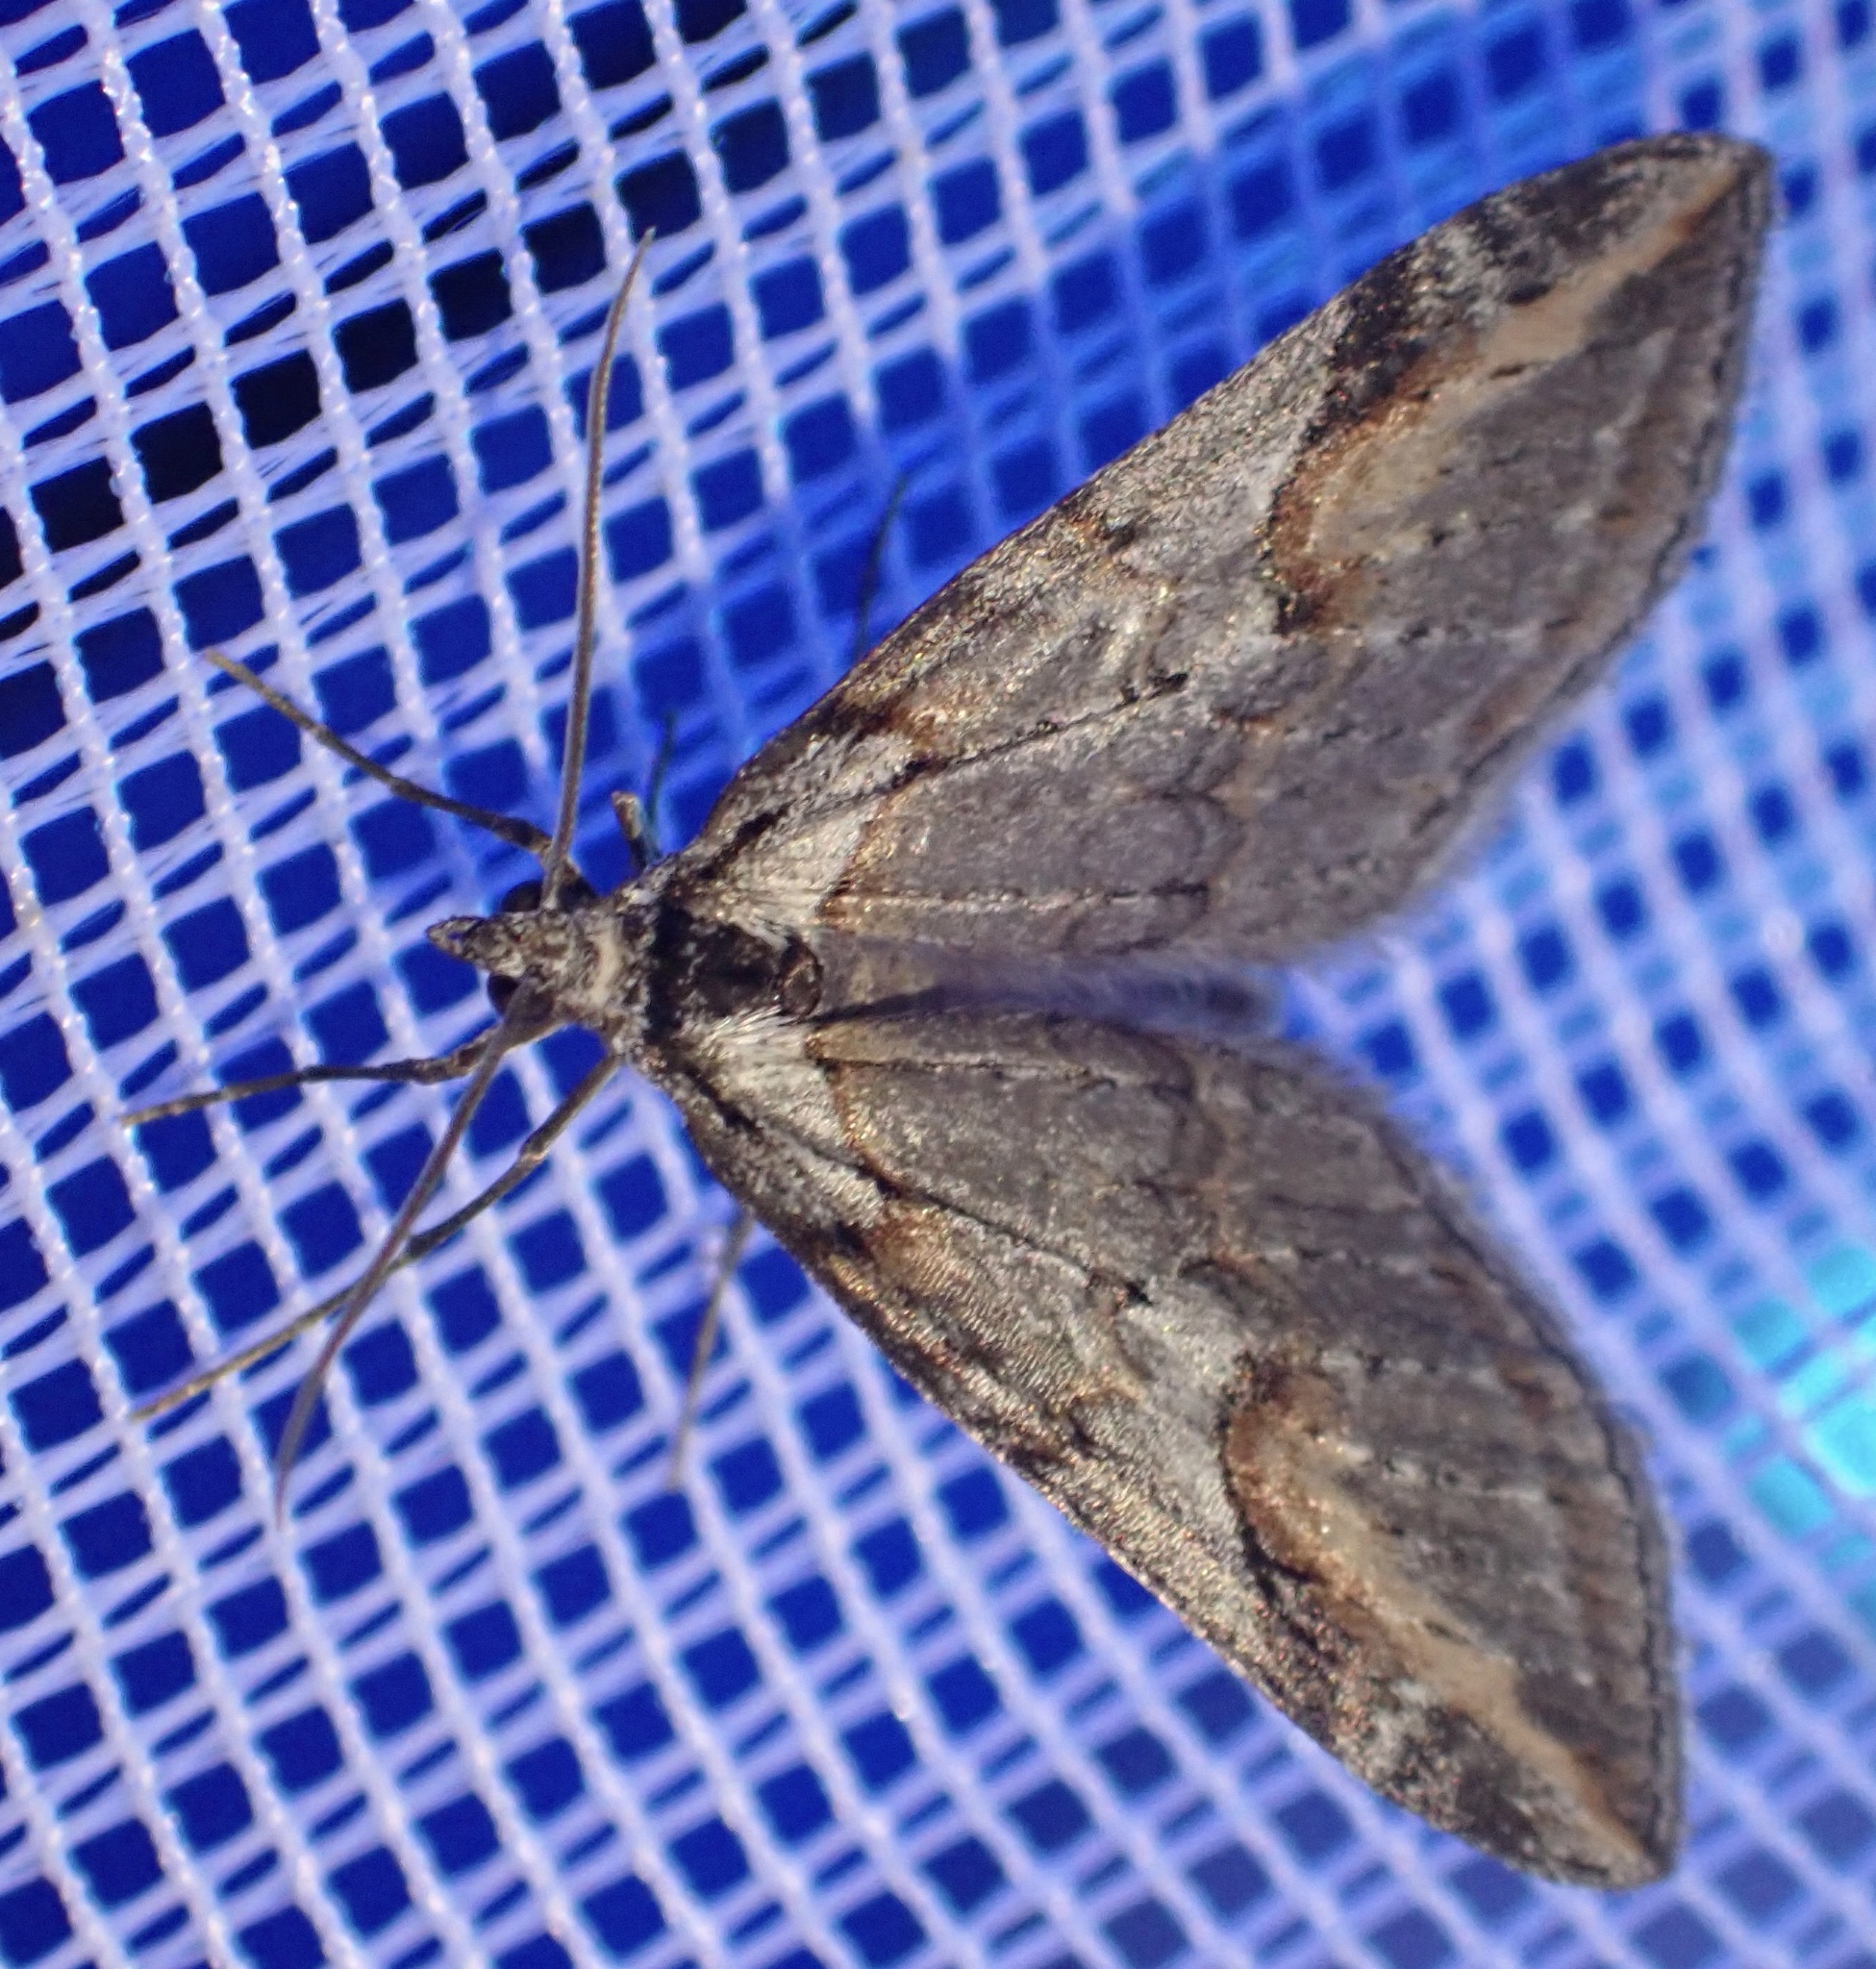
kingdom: Animalia
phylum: Arthropoda
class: Insecta
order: Lepidoptera
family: Geometridae
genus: Chesias
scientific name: Chesias rufata
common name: Broom-tip
